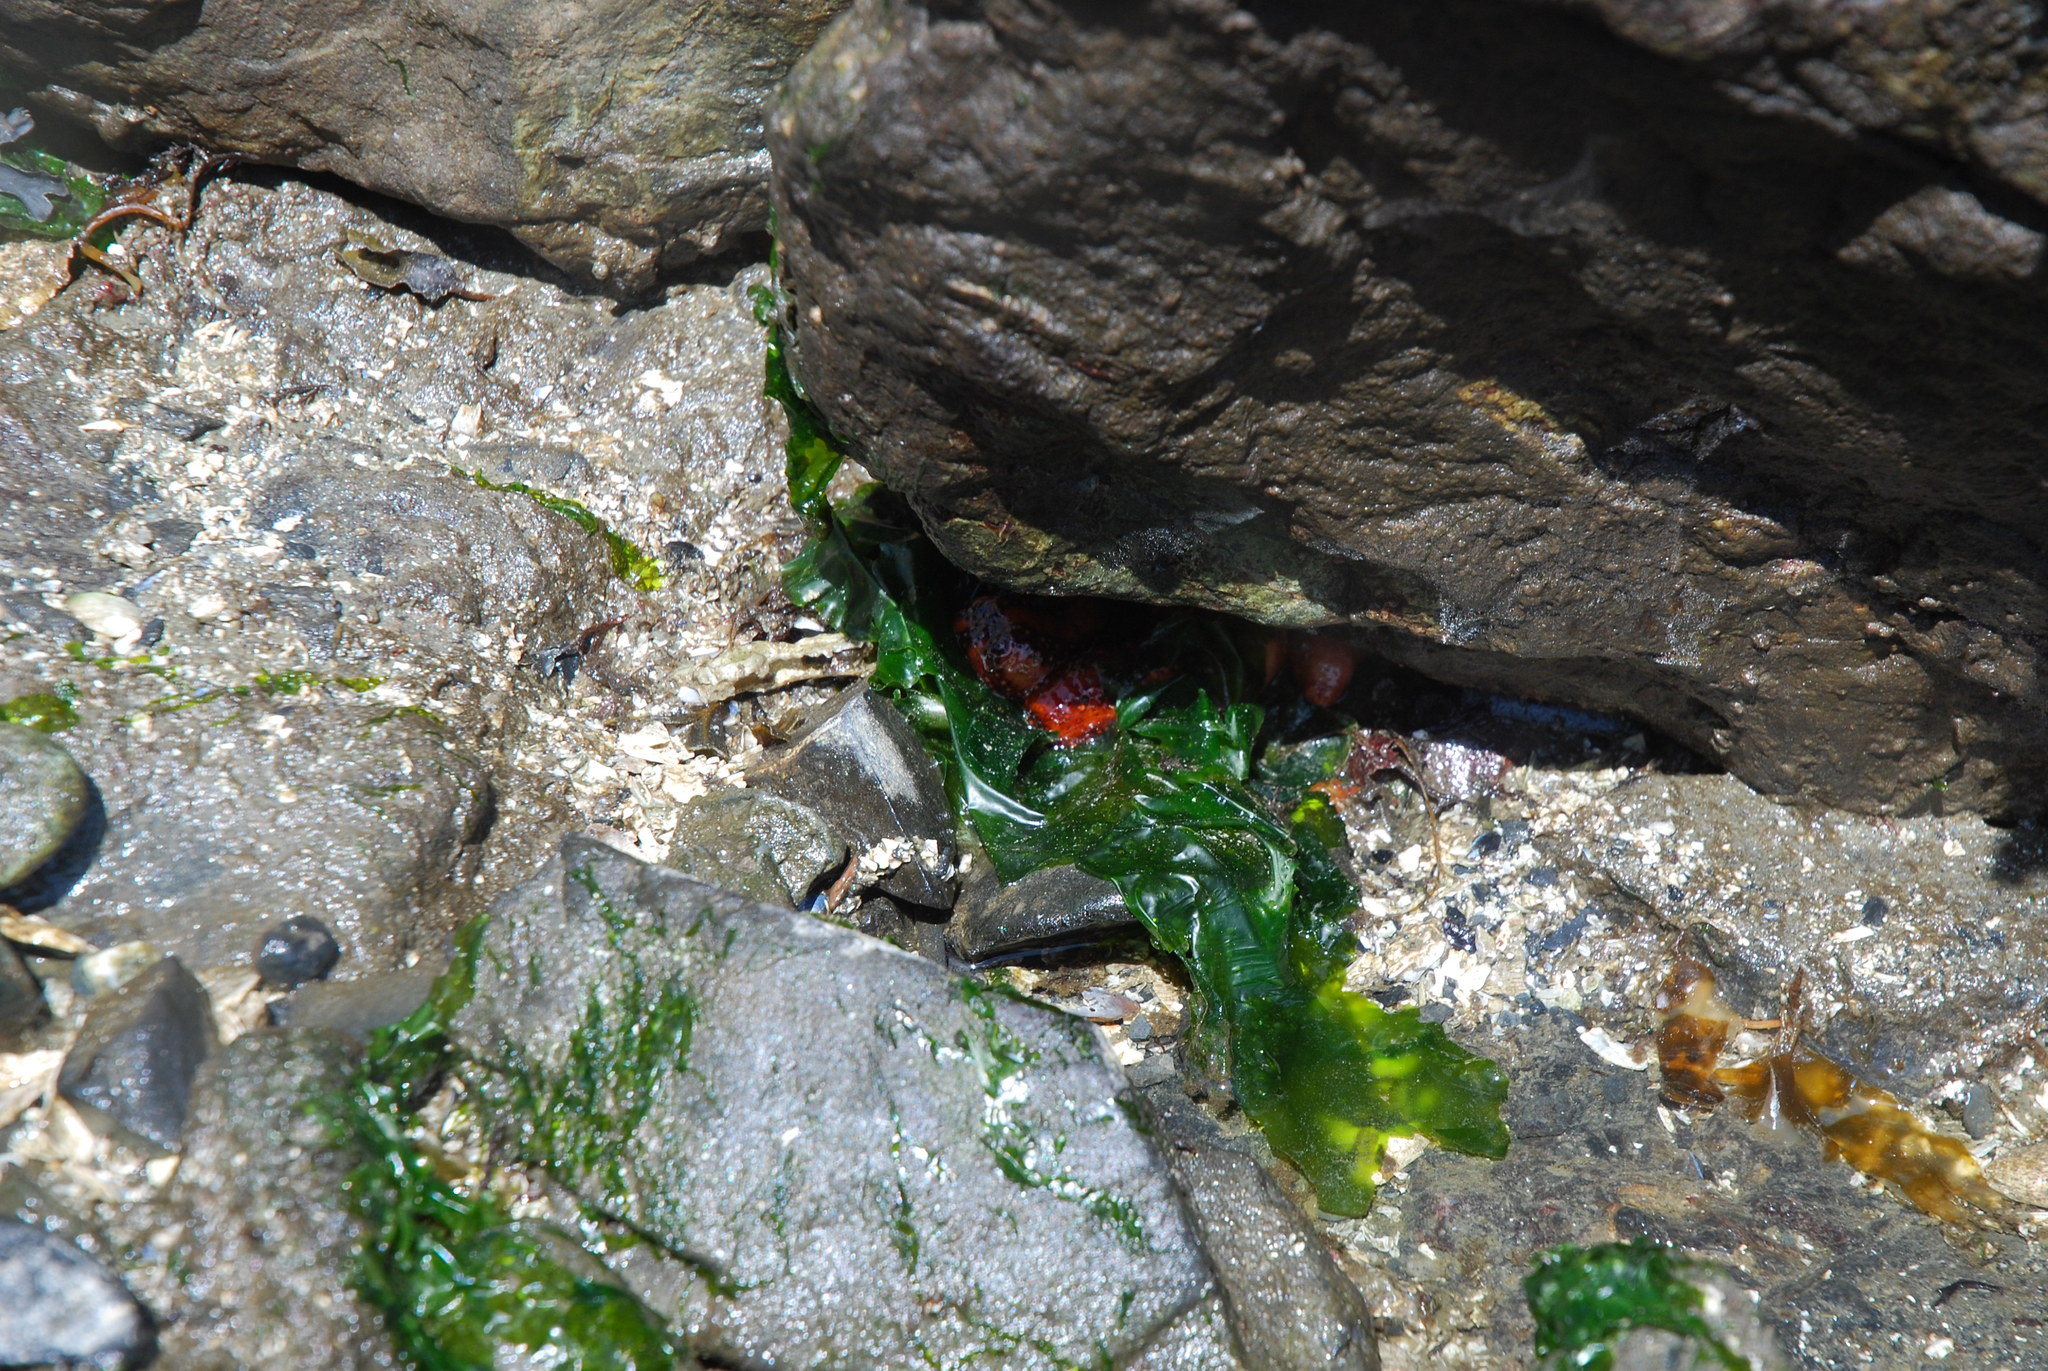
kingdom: Animalia
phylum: Echinodermata
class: Holothuroidea
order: Dendrochirotida
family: Cucumariidae
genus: Cucumaria
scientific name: Cucumaria miniata
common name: Orange sea cucumber
